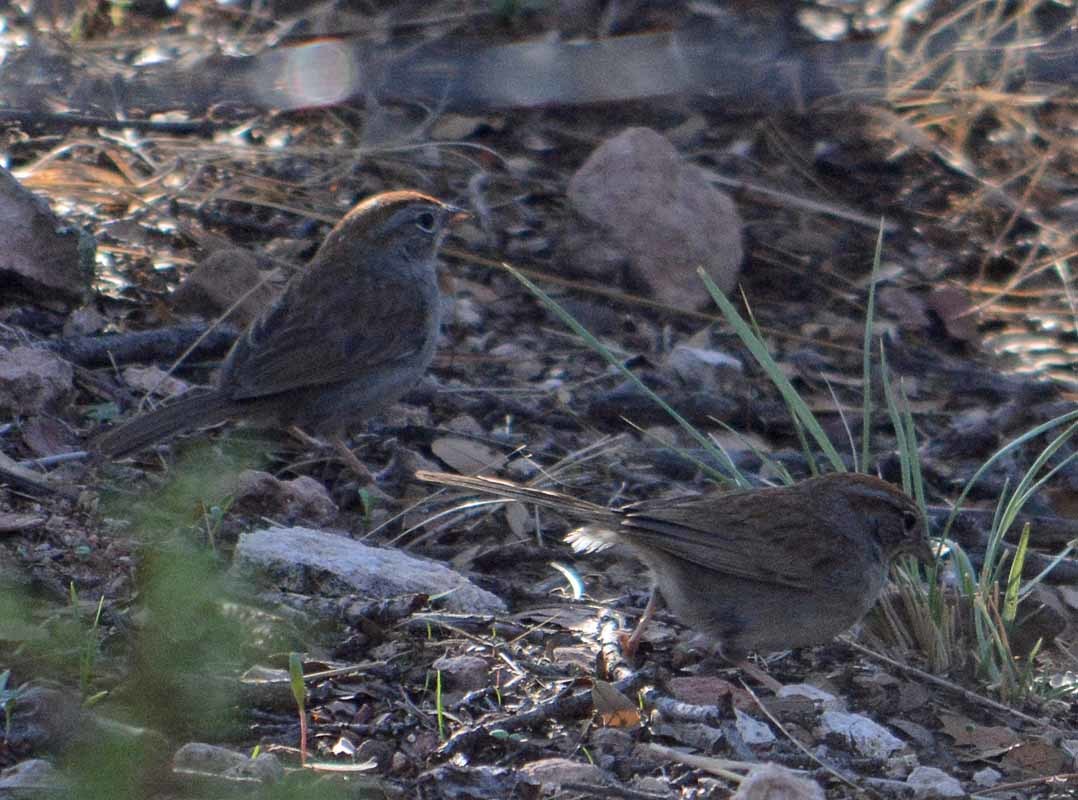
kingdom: Animalia
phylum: Chordata
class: Aves
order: Passeriformes
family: Passerellidae
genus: Aimophila
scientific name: Aimophila ruficeps
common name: Rufous-crowned sparrow
